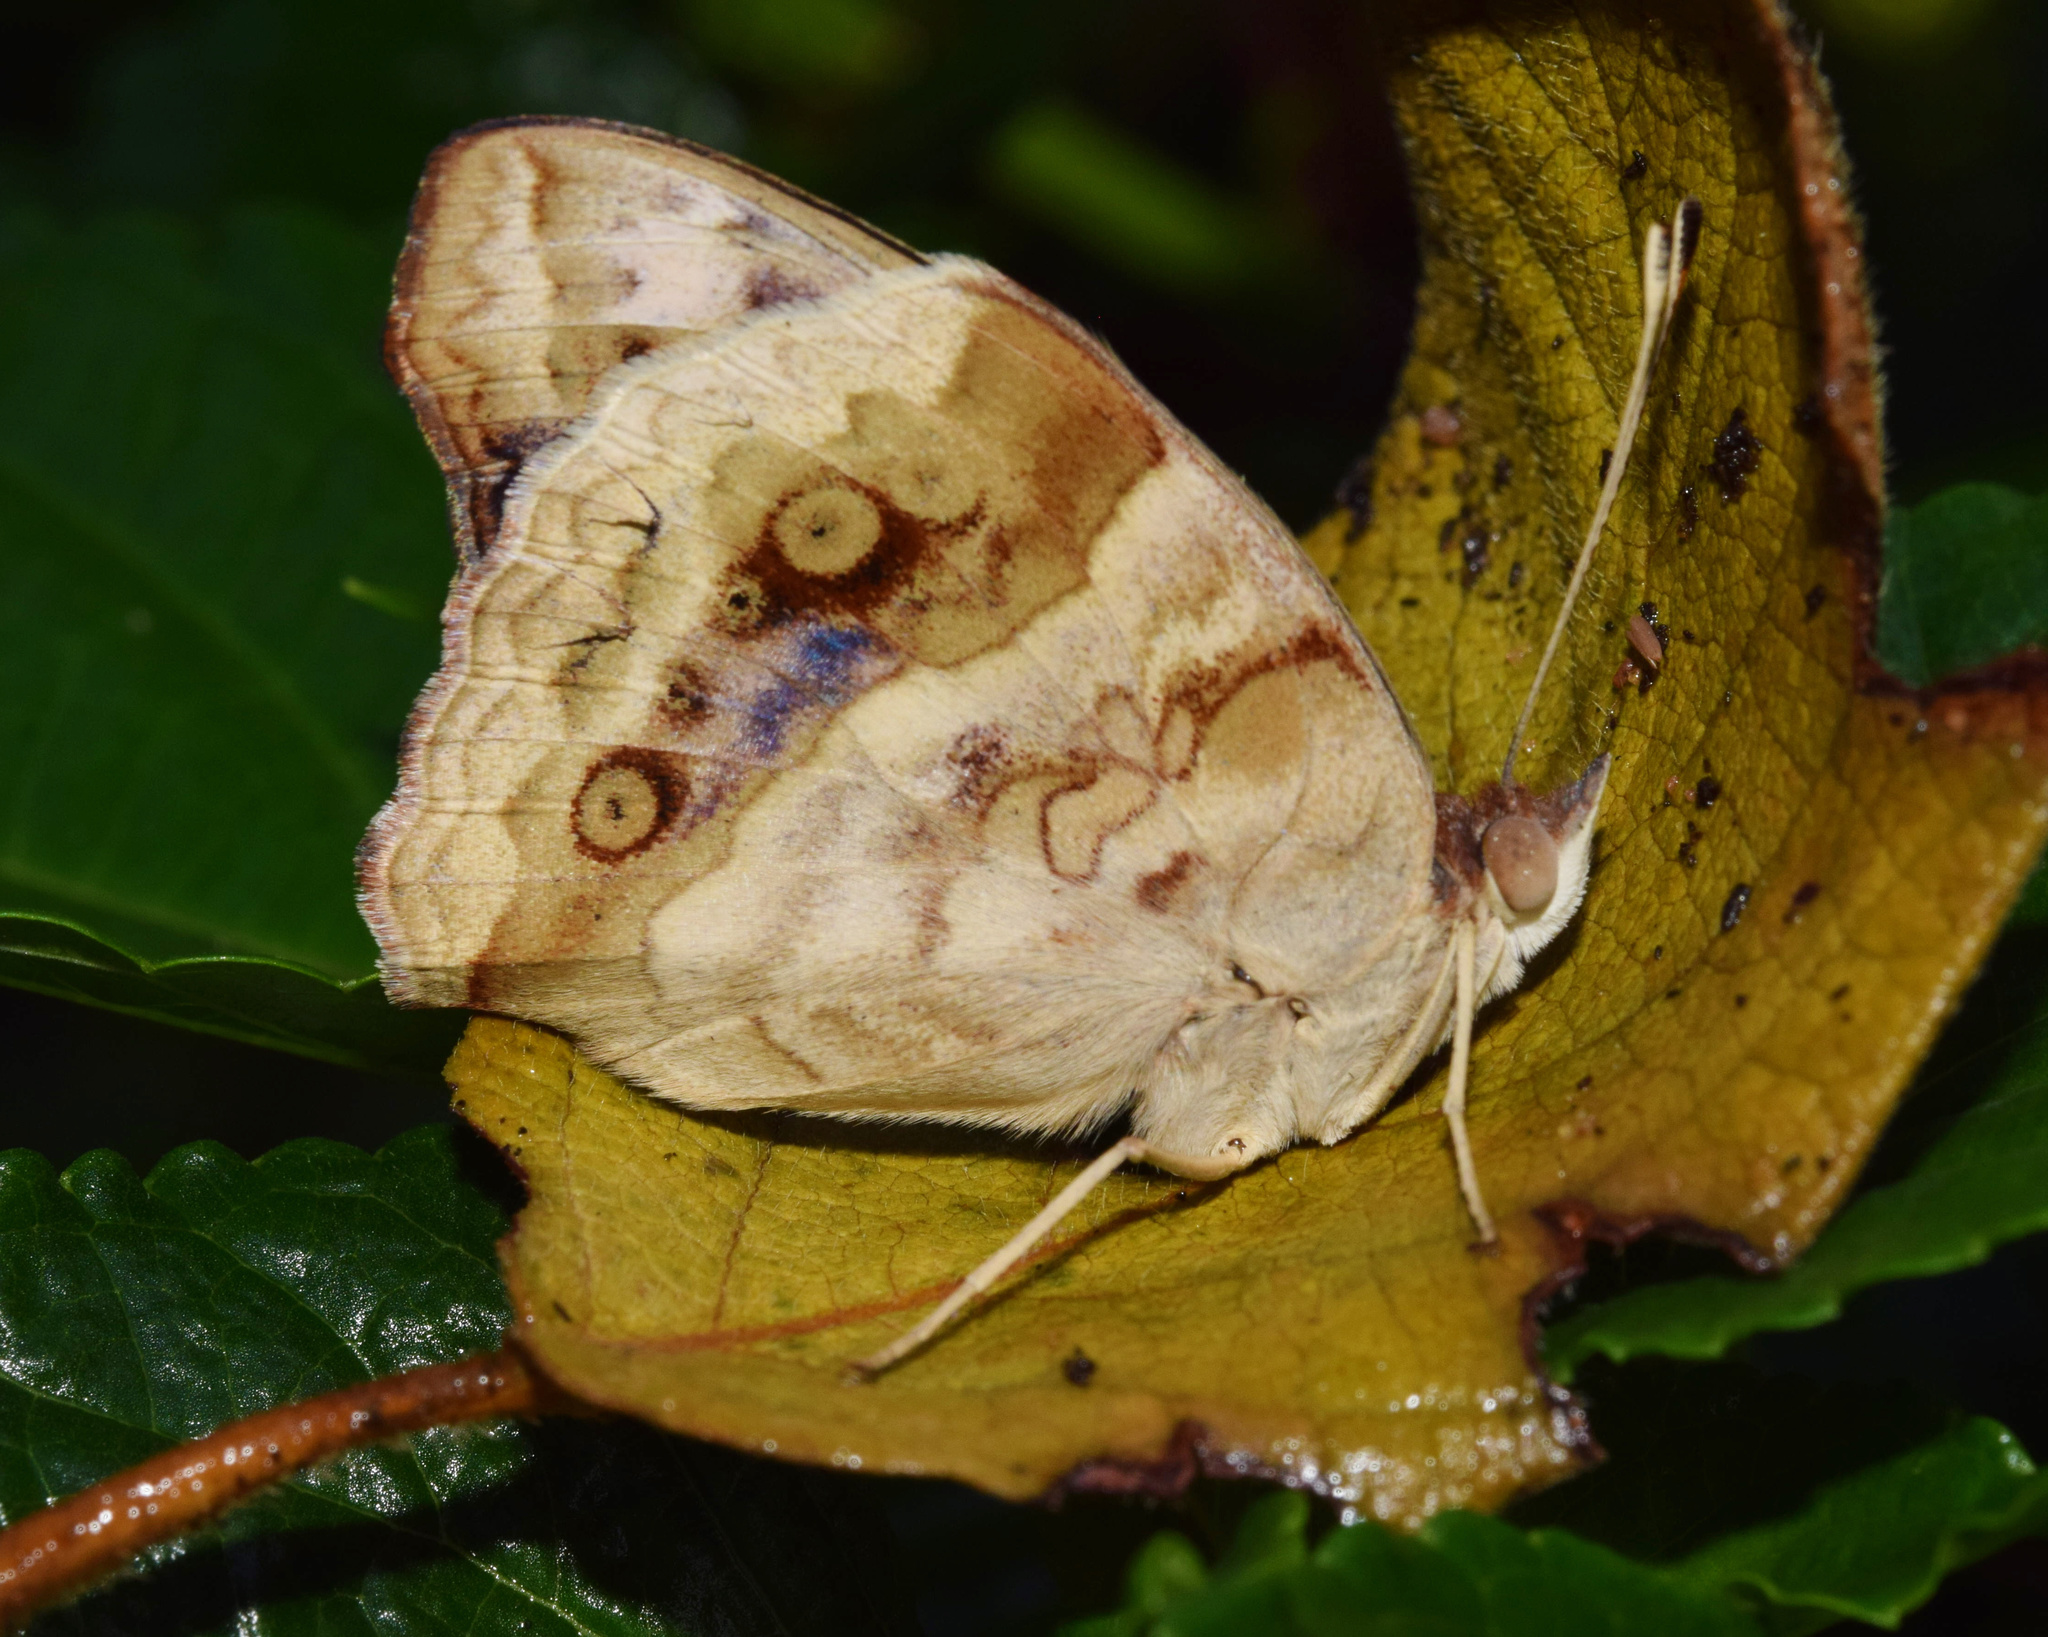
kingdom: Animalia
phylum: Arthropoda
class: Insecta
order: Lepidoptera
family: Nymphalidae
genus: Junonia
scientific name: Junonia oenone
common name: Dark blue pansy
